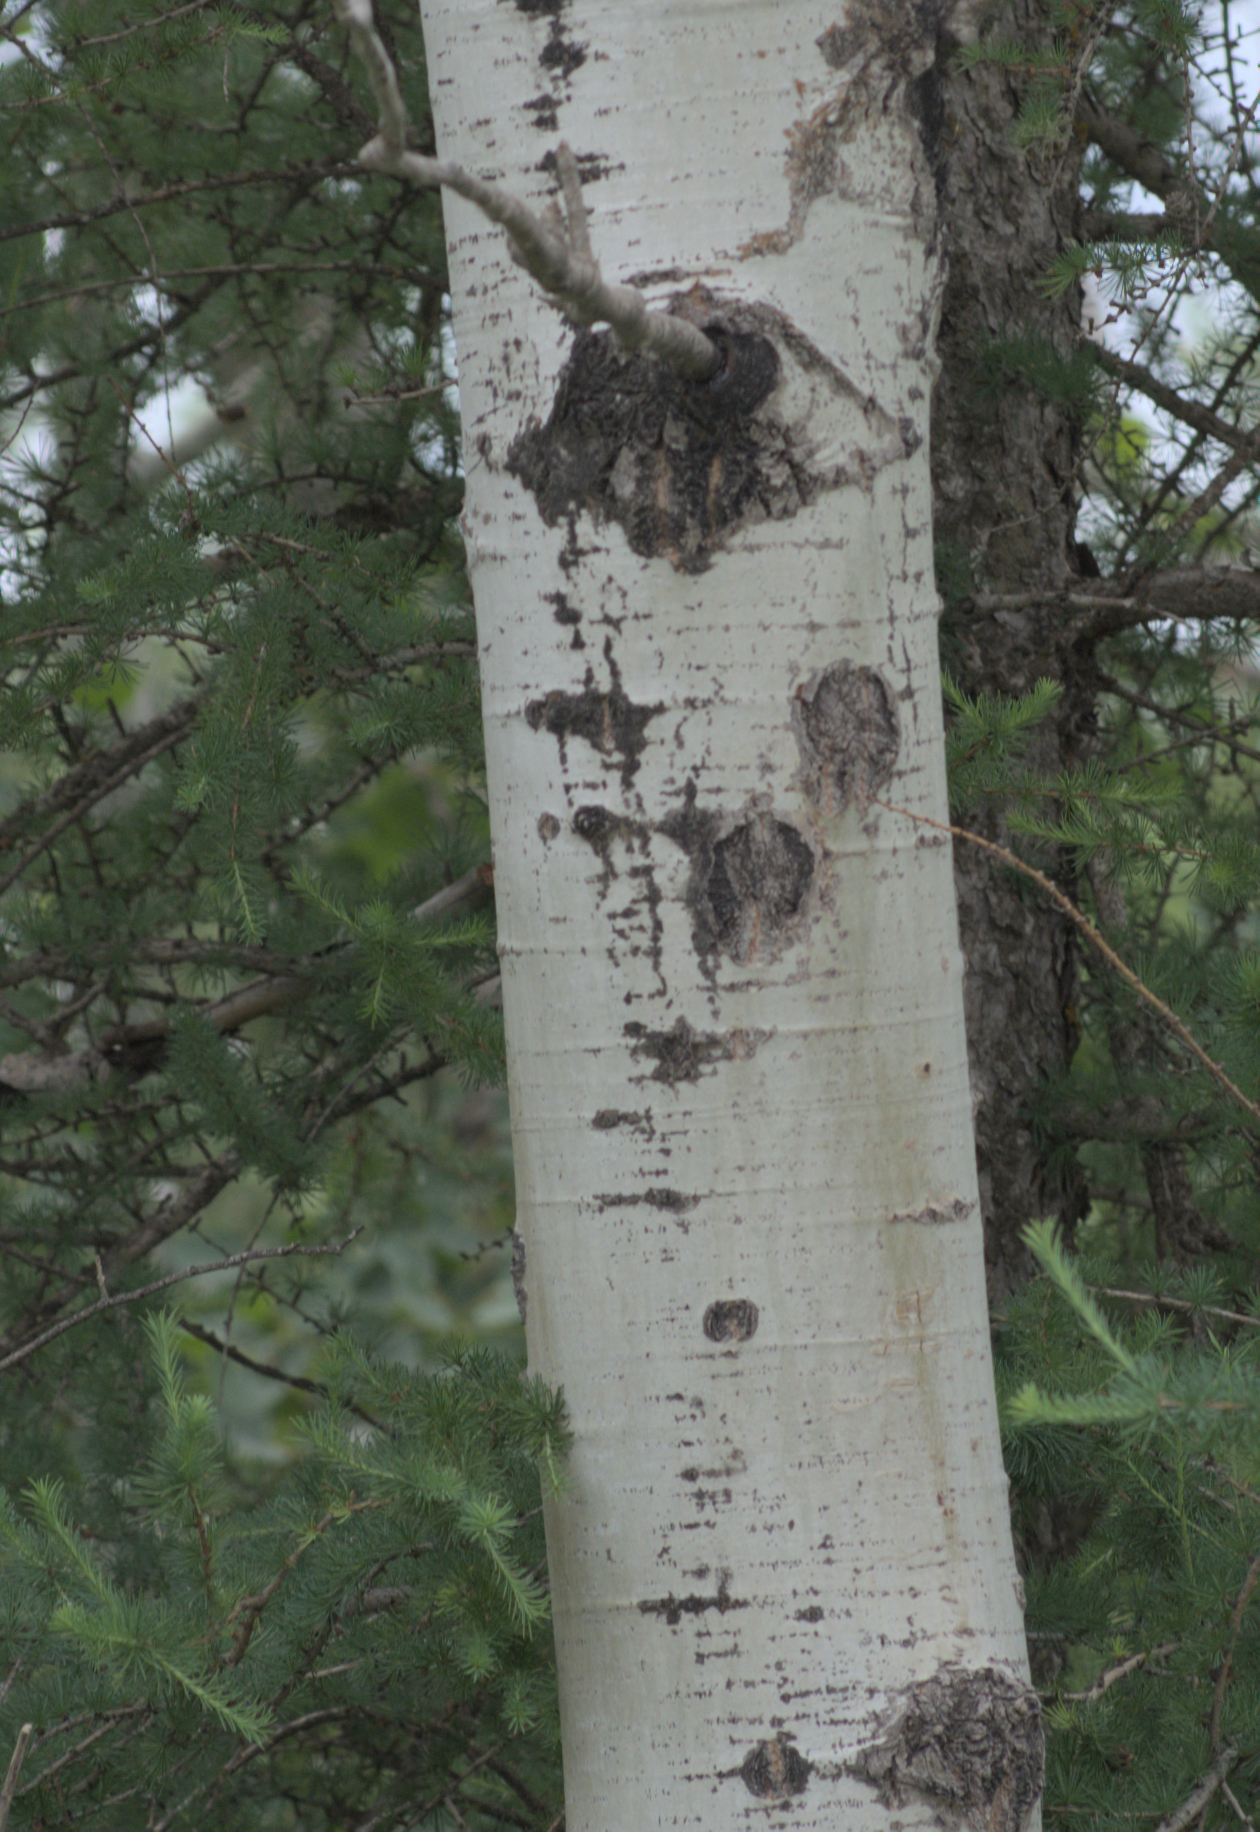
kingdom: Plantae
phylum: Tracheophyta
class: Magnoliopsida
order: Malpighiales
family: Salicaceae
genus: Populus
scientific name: Populus tremuloides
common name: Quaking aspen
